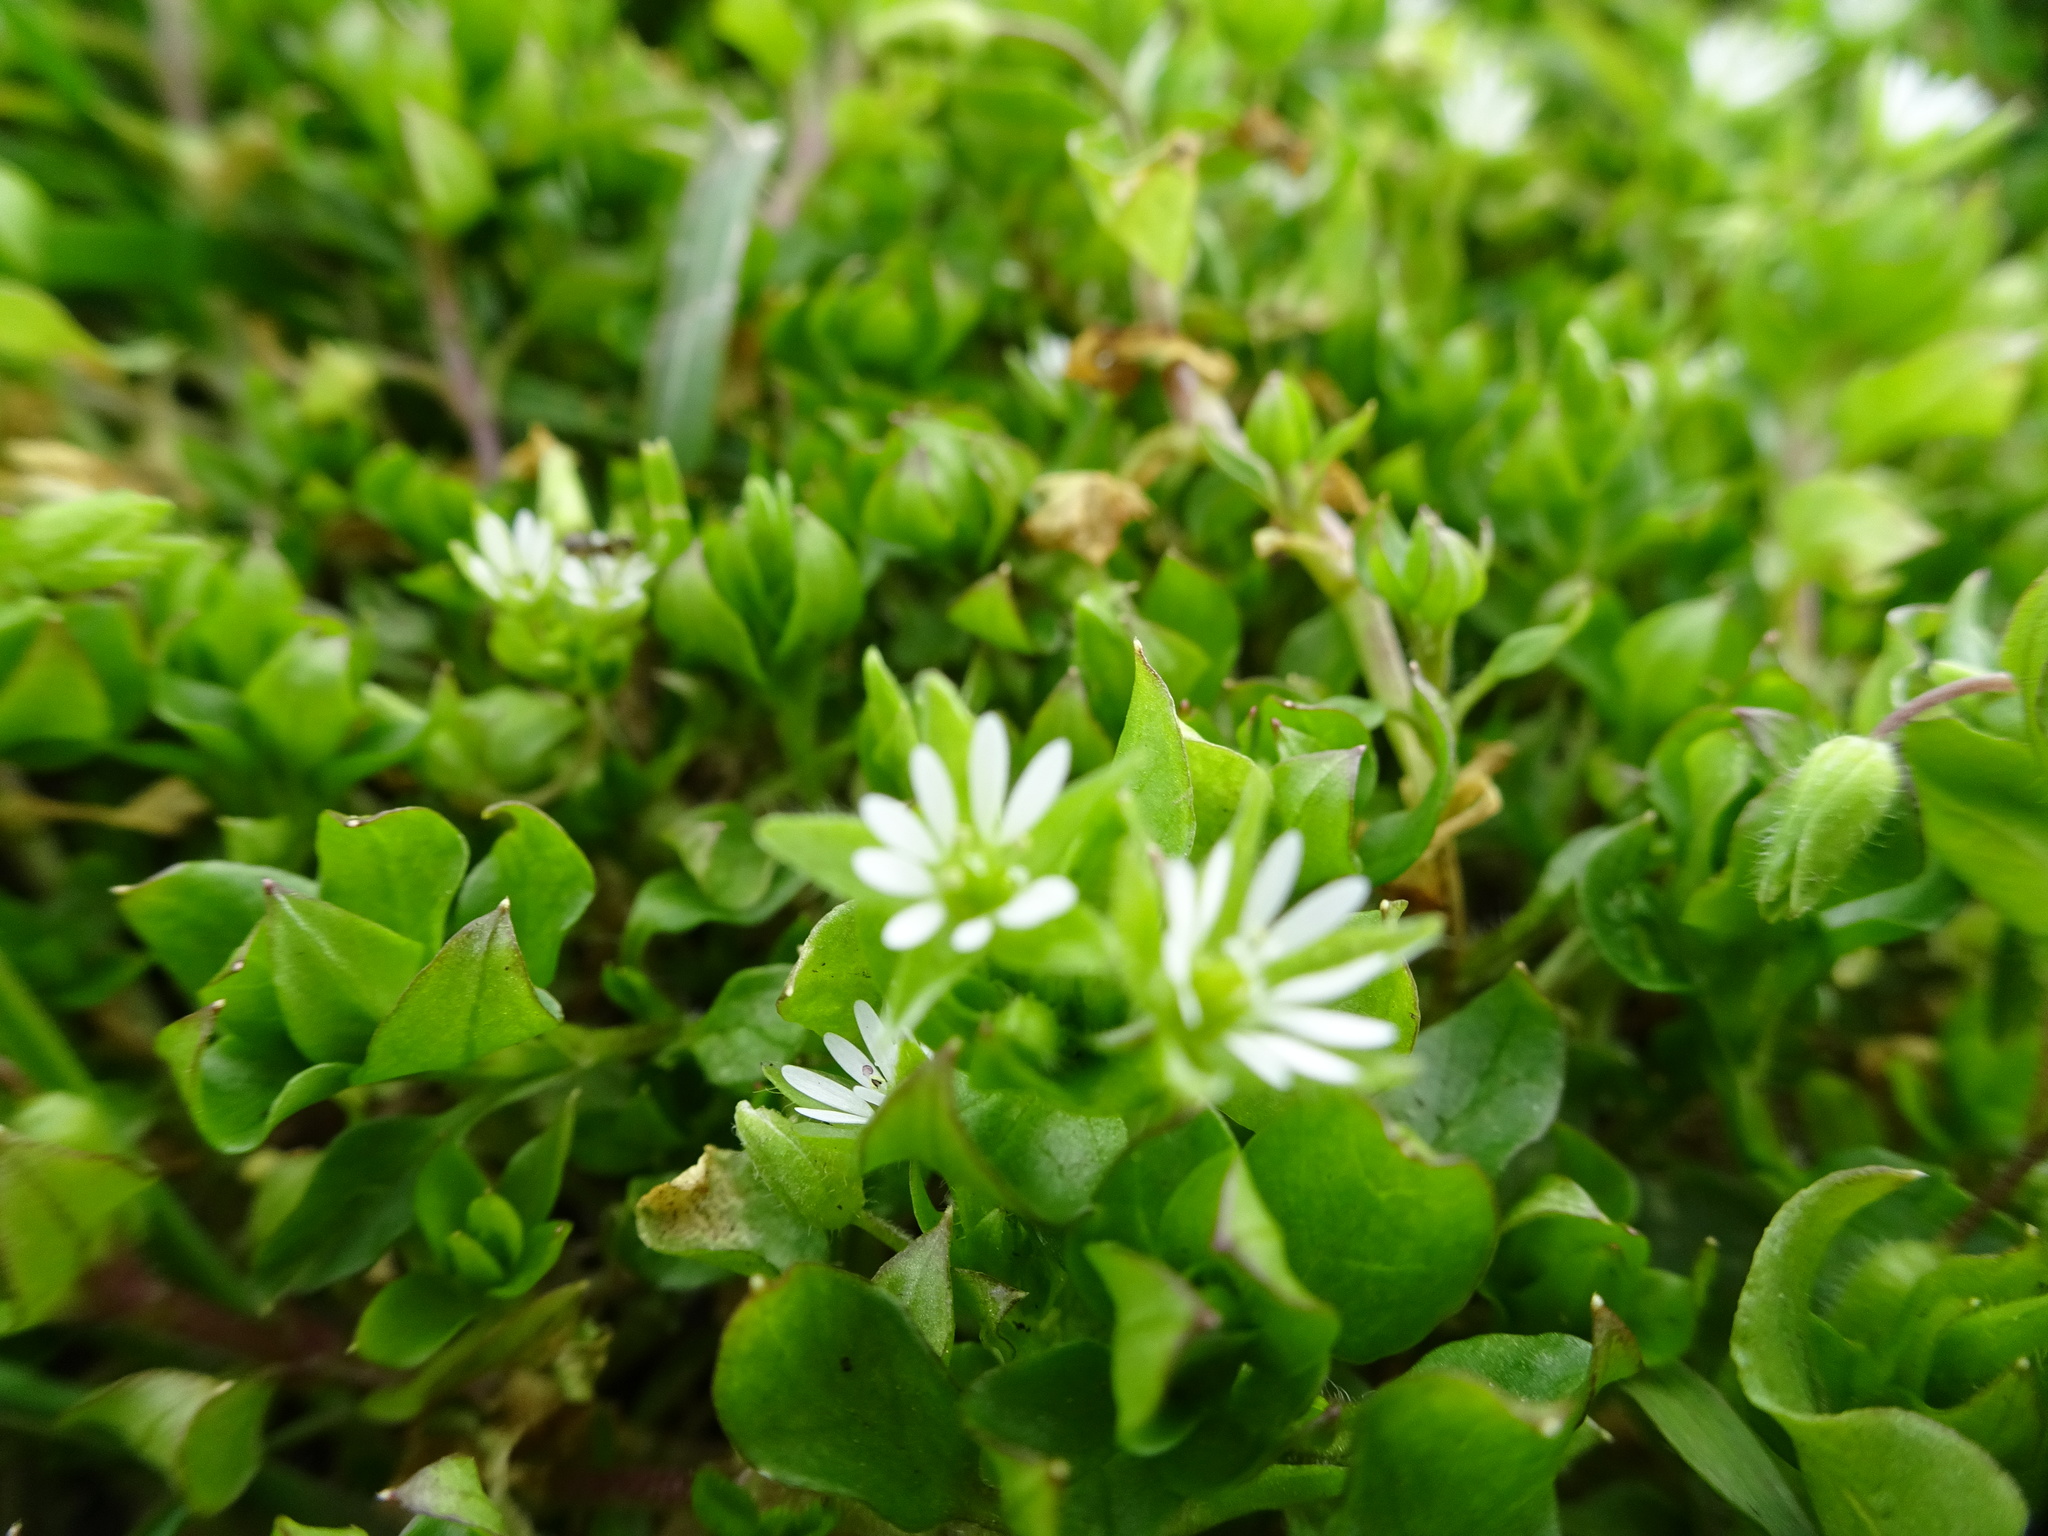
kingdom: Plantae
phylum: Tracheophyta
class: Magnoliopsida
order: Caryophyllales
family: Caryophyllaceae
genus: Stellaria
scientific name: Stellaria media
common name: Common chickweed
